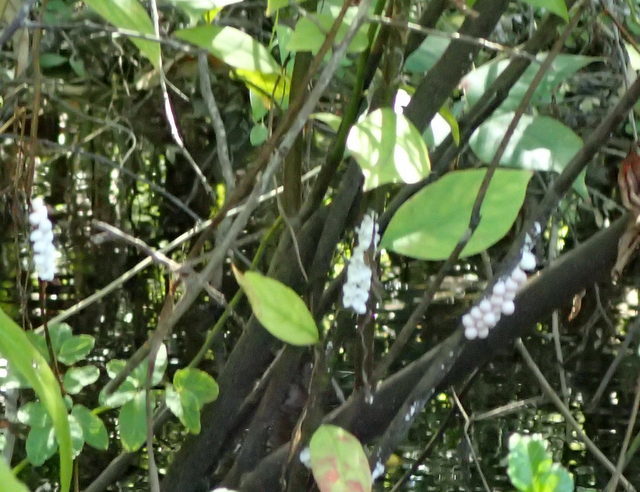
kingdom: Animalia
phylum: Mollusca
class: Gastropoda
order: Architaenioglossa
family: Ampullariidae
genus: Pomacea
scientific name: Pomacea paludosa
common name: Florida applesnail
